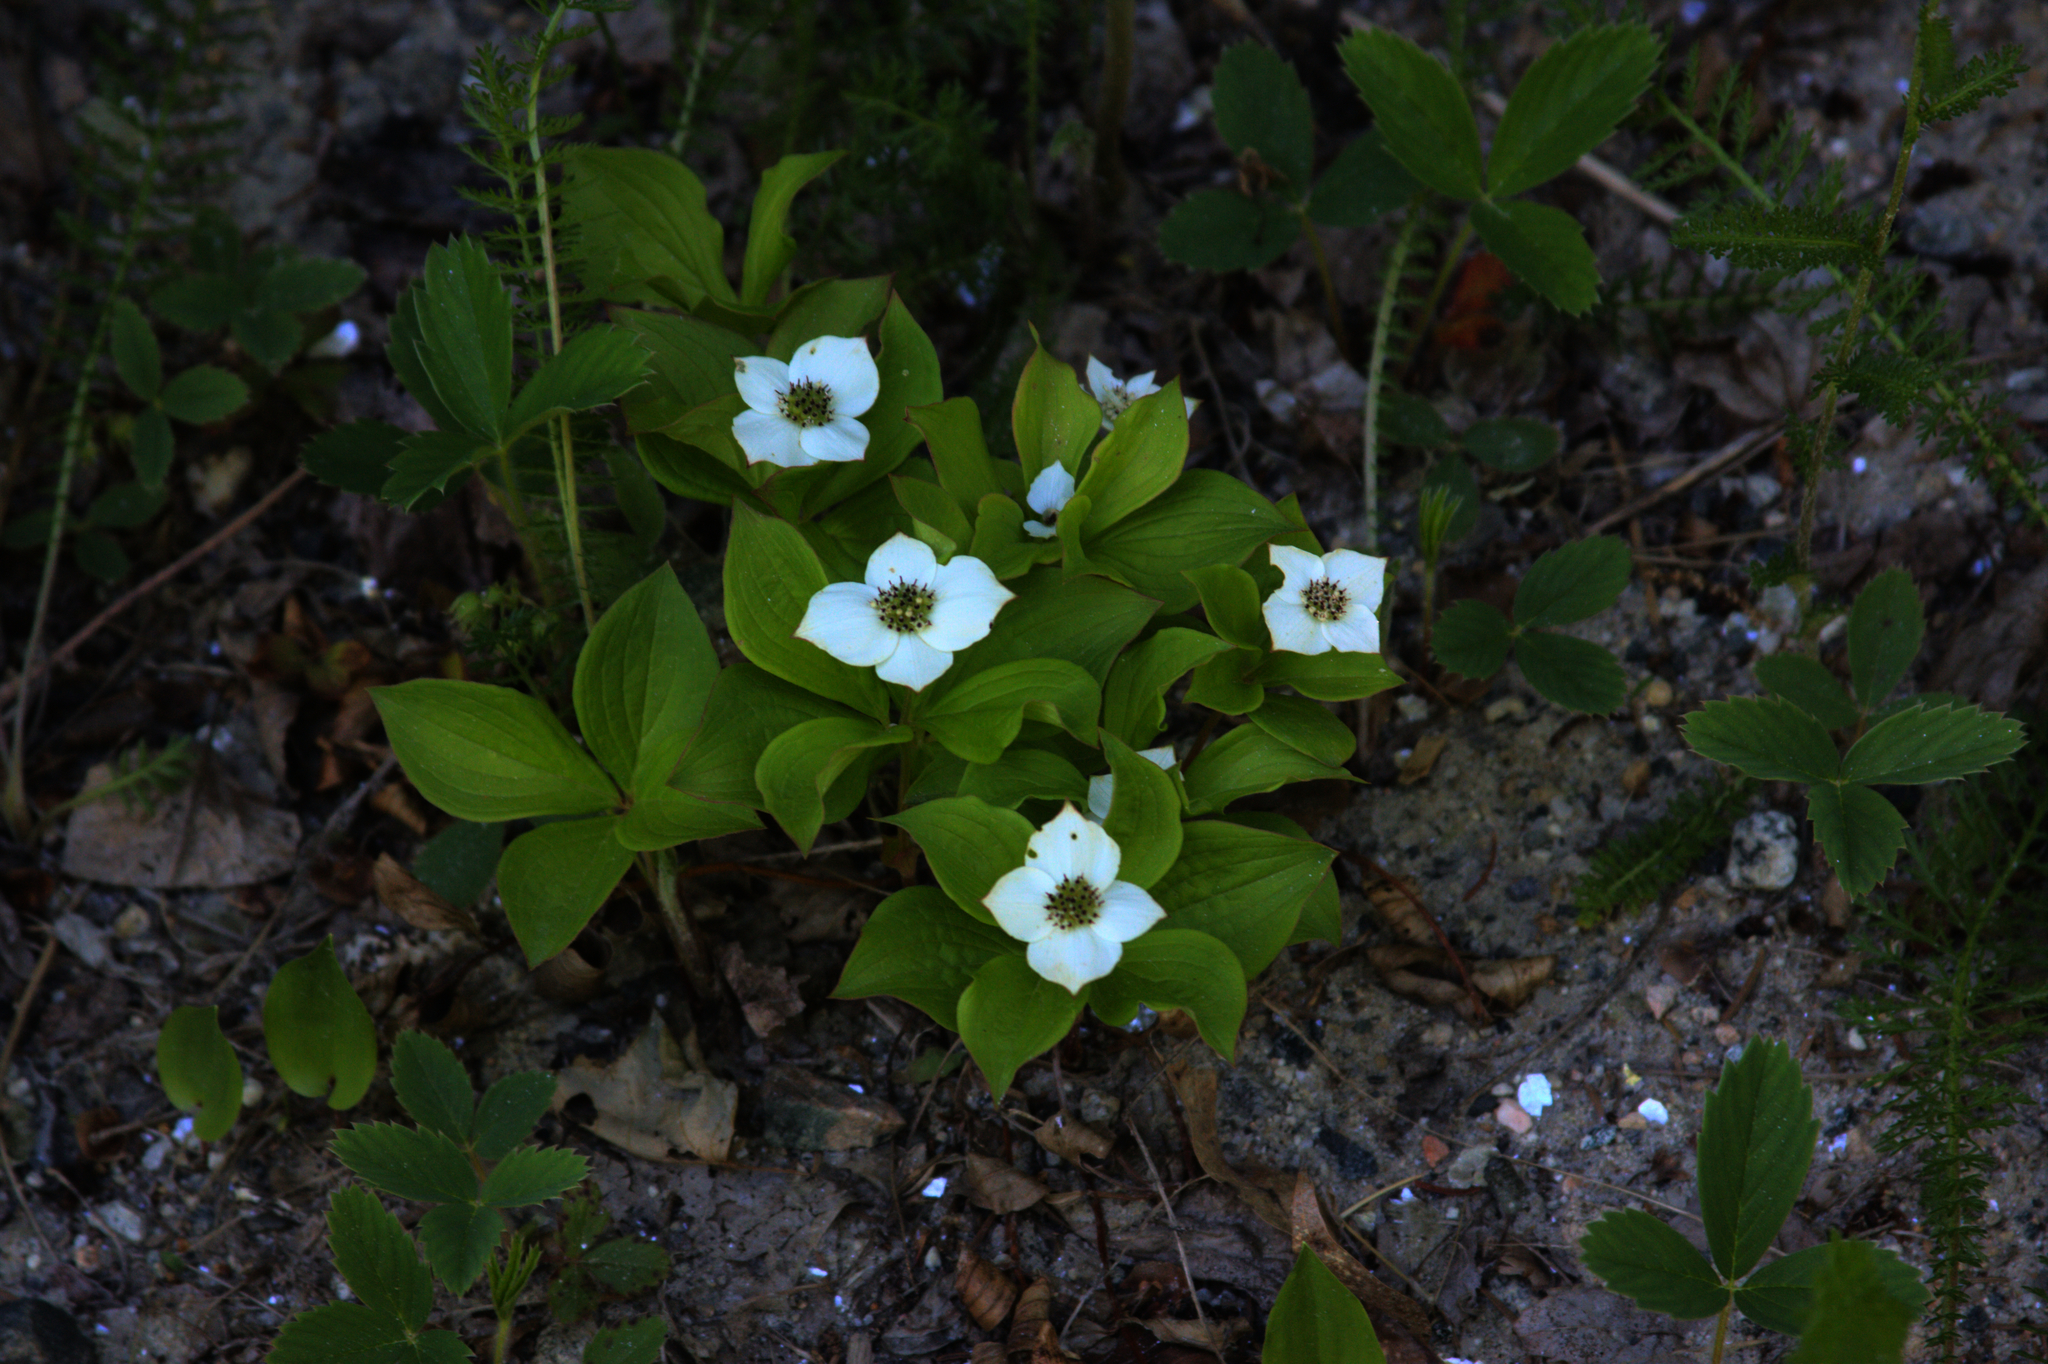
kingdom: Plantae
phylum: Tracheophyta
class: Magnoliopsida
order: Cornales
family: Cornaceae
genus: Cornus
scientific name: Cornus canadensis
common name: Creeping dogwood
